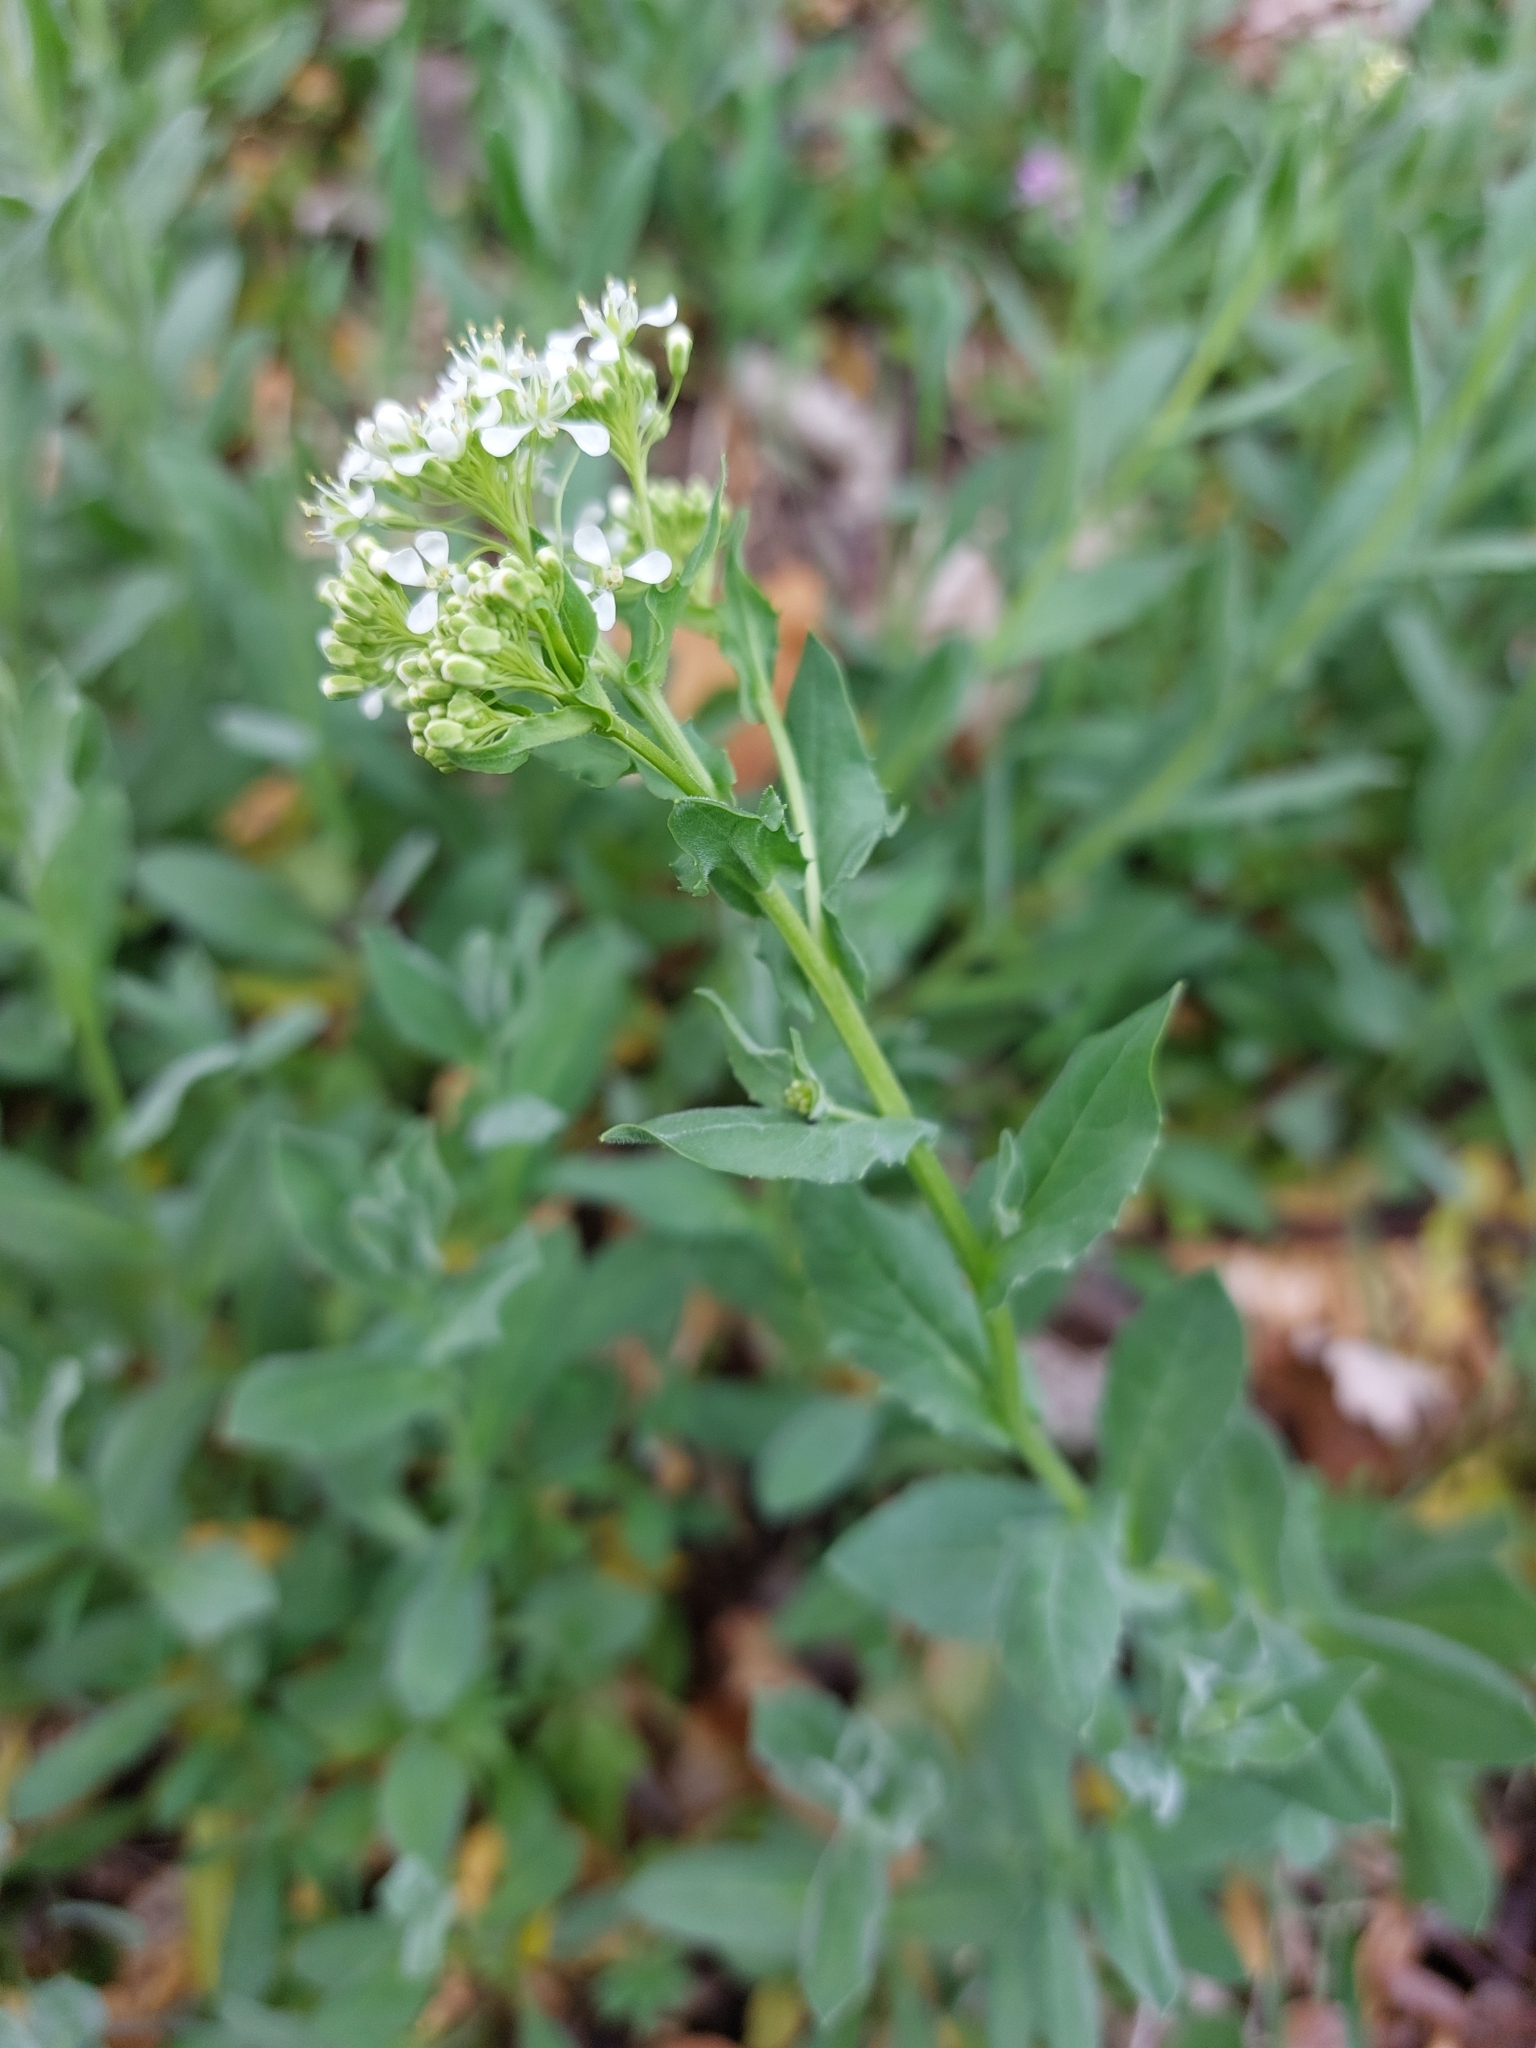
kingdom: Plantae
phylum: Tracheophyta
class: Magnoliopsida
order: Brassicales
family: Brassicaceae
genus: Lepidium
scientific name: Lepidium draba
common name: Hoary cress
